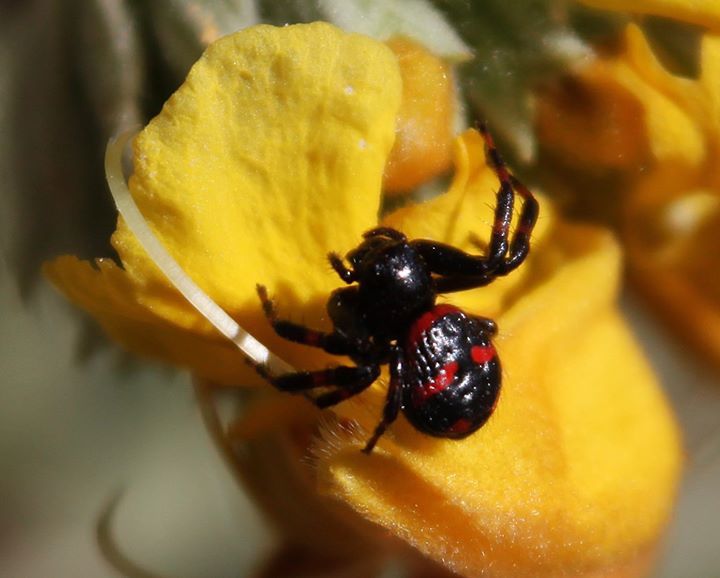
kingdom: Animalia
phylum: Arthropoda
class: Arachnida
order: Araneae
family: Thomisidae
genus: Synema
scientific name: Synema globosum
